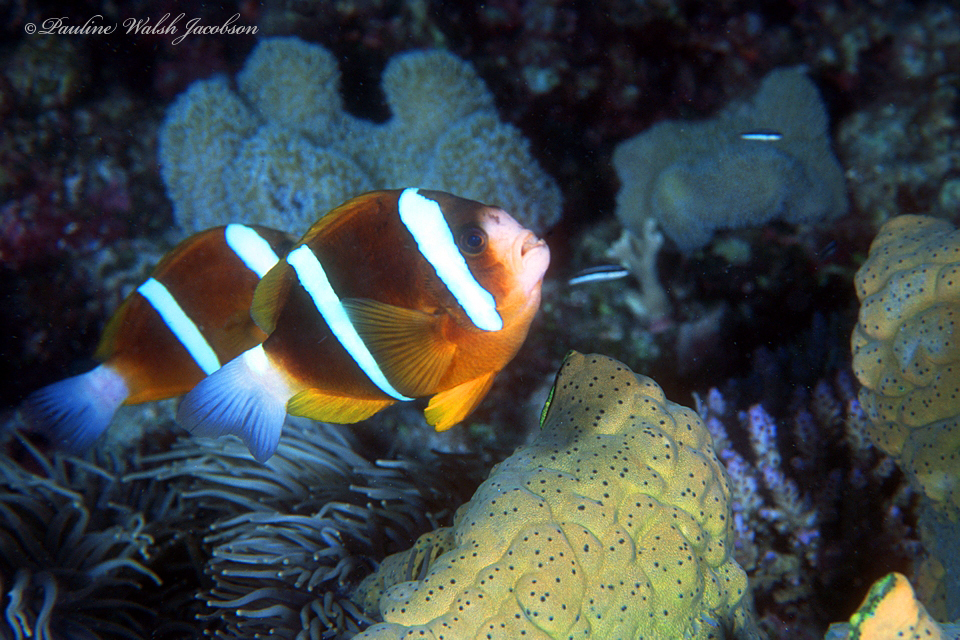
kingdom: Animalia
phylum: Chordata
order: Perciformes
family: Pomacentridae
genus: Amphiprion
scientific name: Amphiprion akindynos
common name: Barrier reef anemonefish
